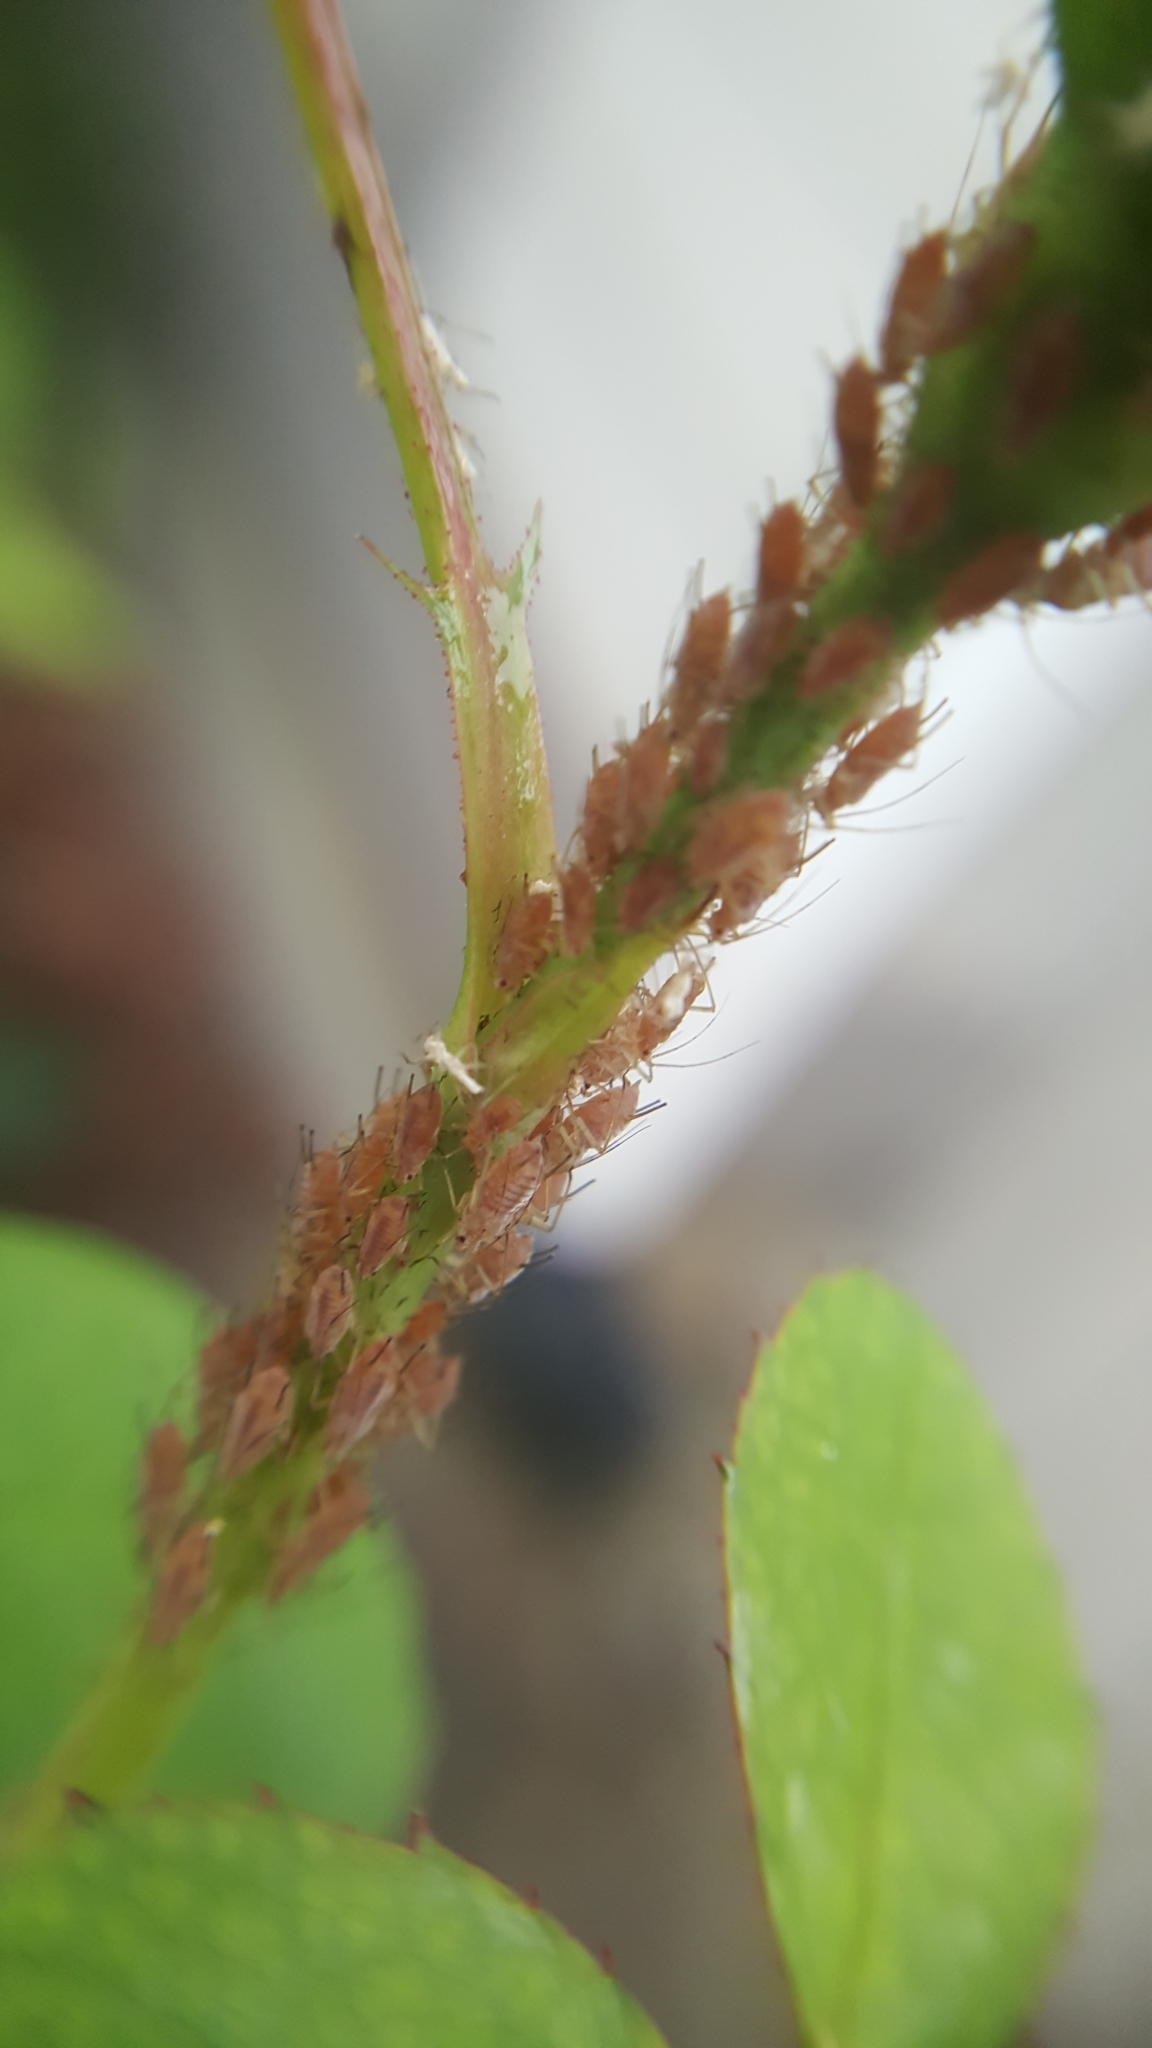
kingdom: Animalia
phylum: Arthropoda
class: Insecta
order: Hemiptera
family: Aphididae
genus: Macrosiphum
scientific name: Macrosiphum rosae
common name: Rose aphid
